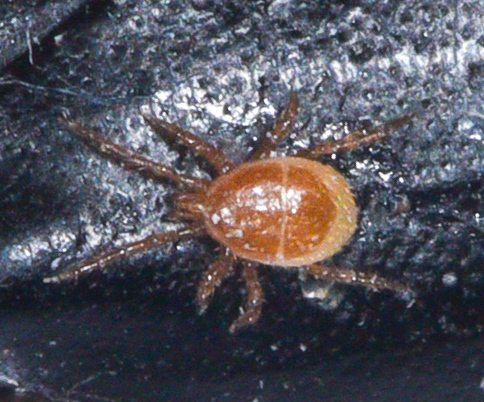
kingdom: Animalia
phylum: Arthropoda
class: Arachnida
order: Mesostigmata
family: Parasitidae
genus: Poecilochirus
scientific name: Poecilochirus
